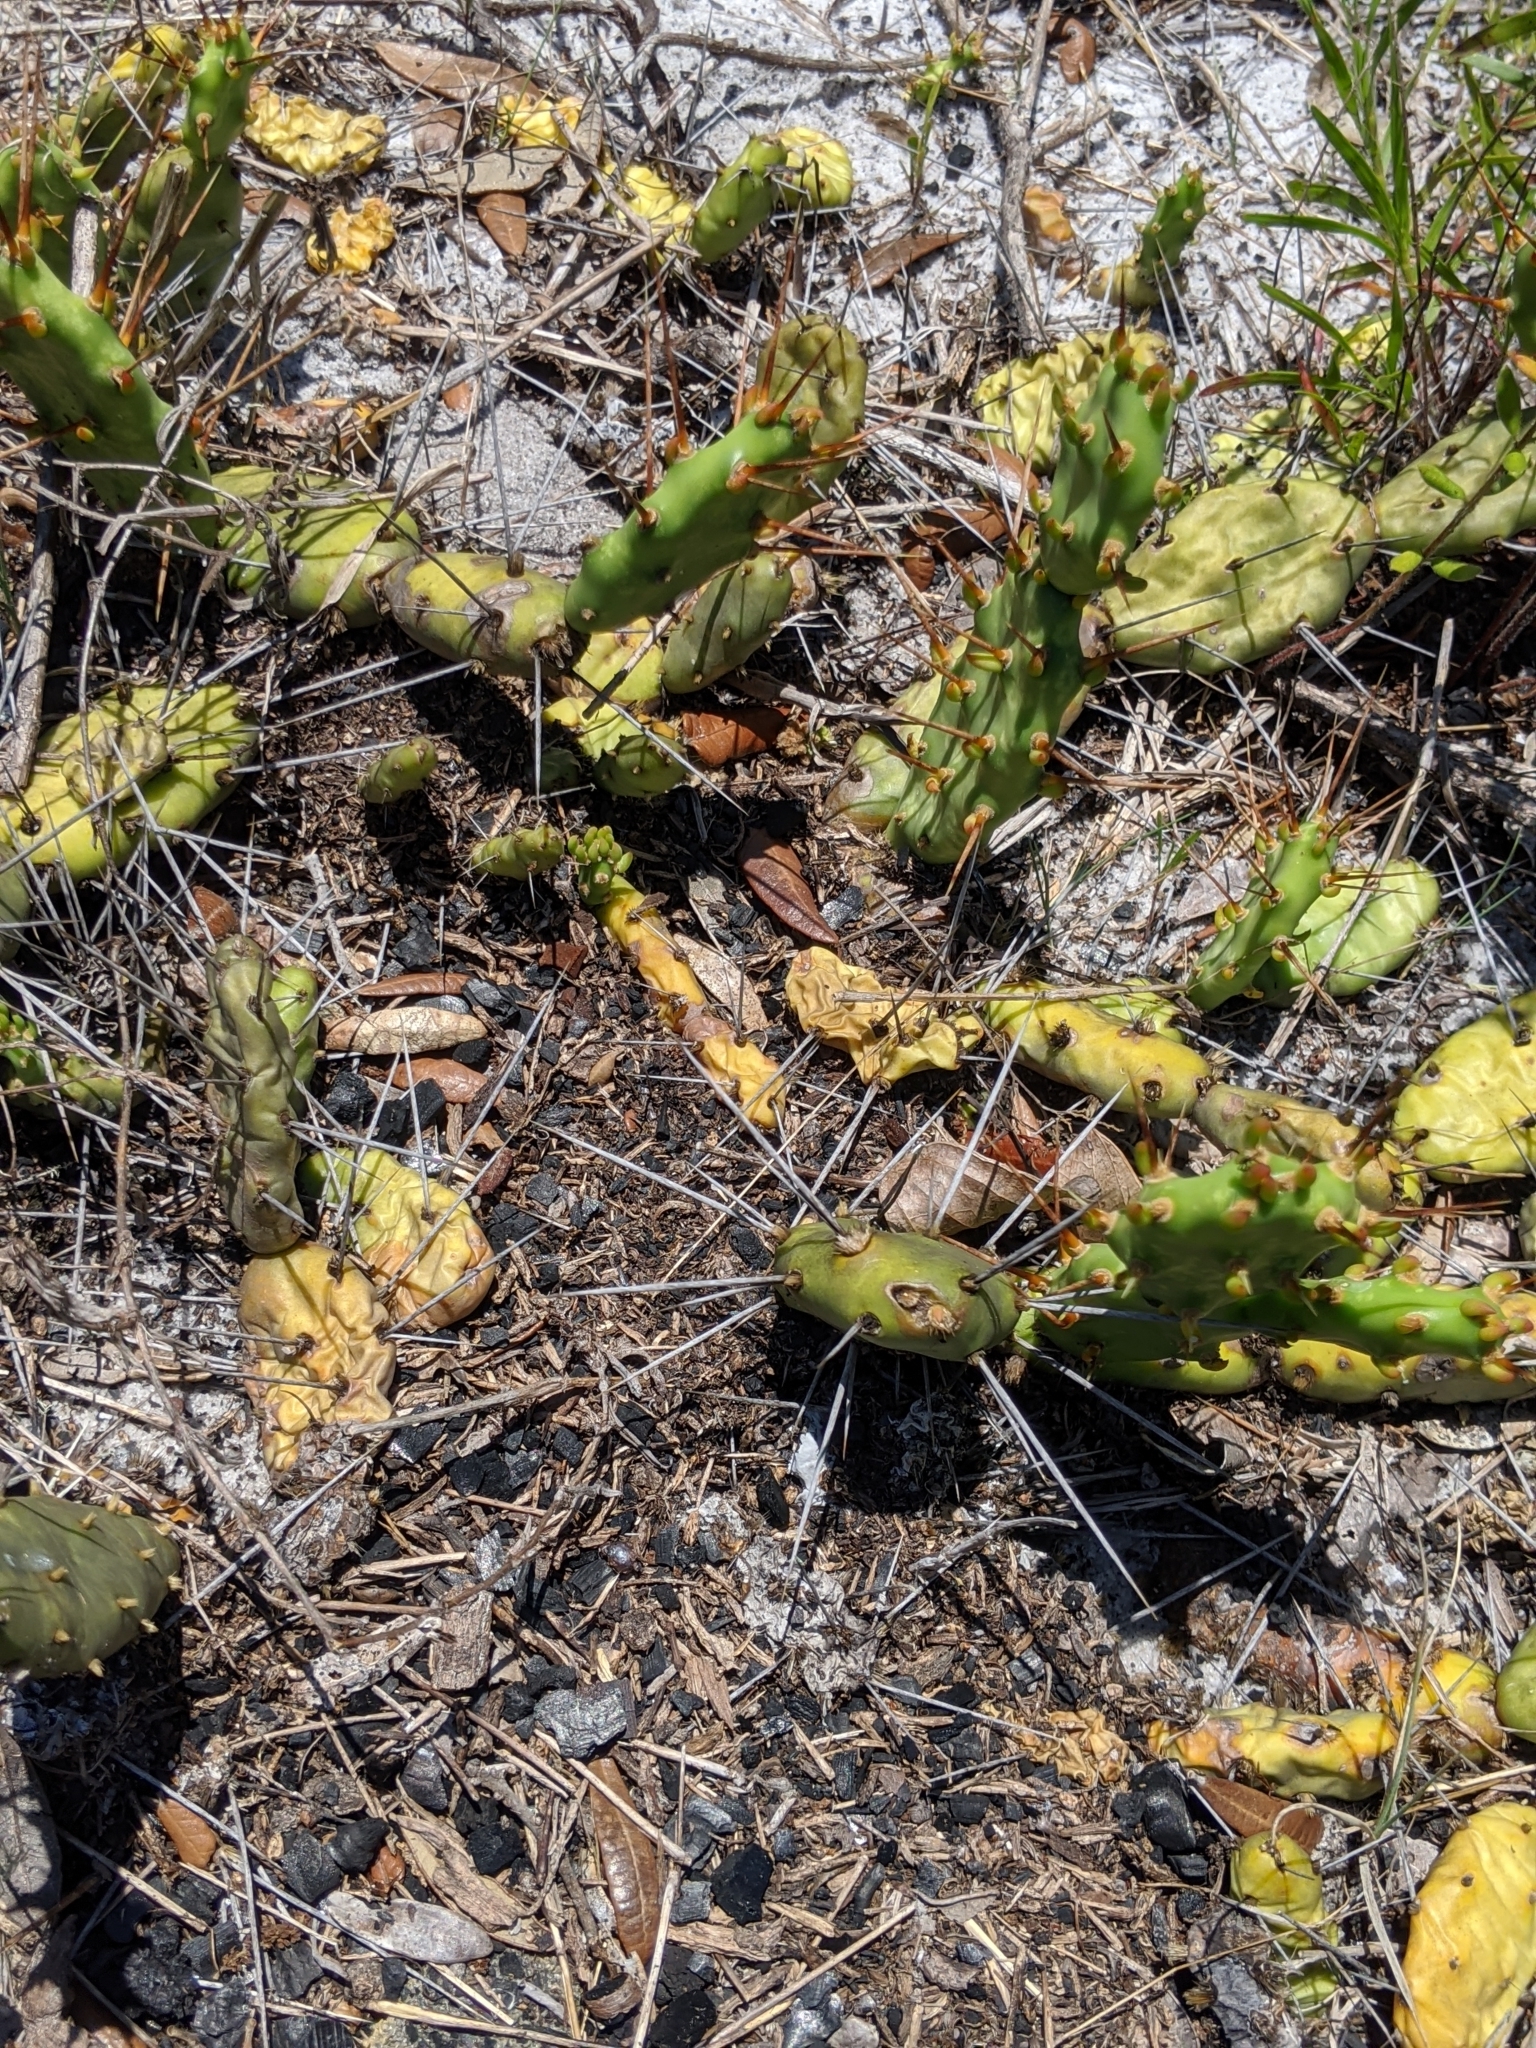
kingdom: Plantae
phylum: Tracheophyta
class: Magnoliopsida
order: Caryophyllales
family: Cactaceae
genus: Opuntia
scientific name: Opuntia drummondii
